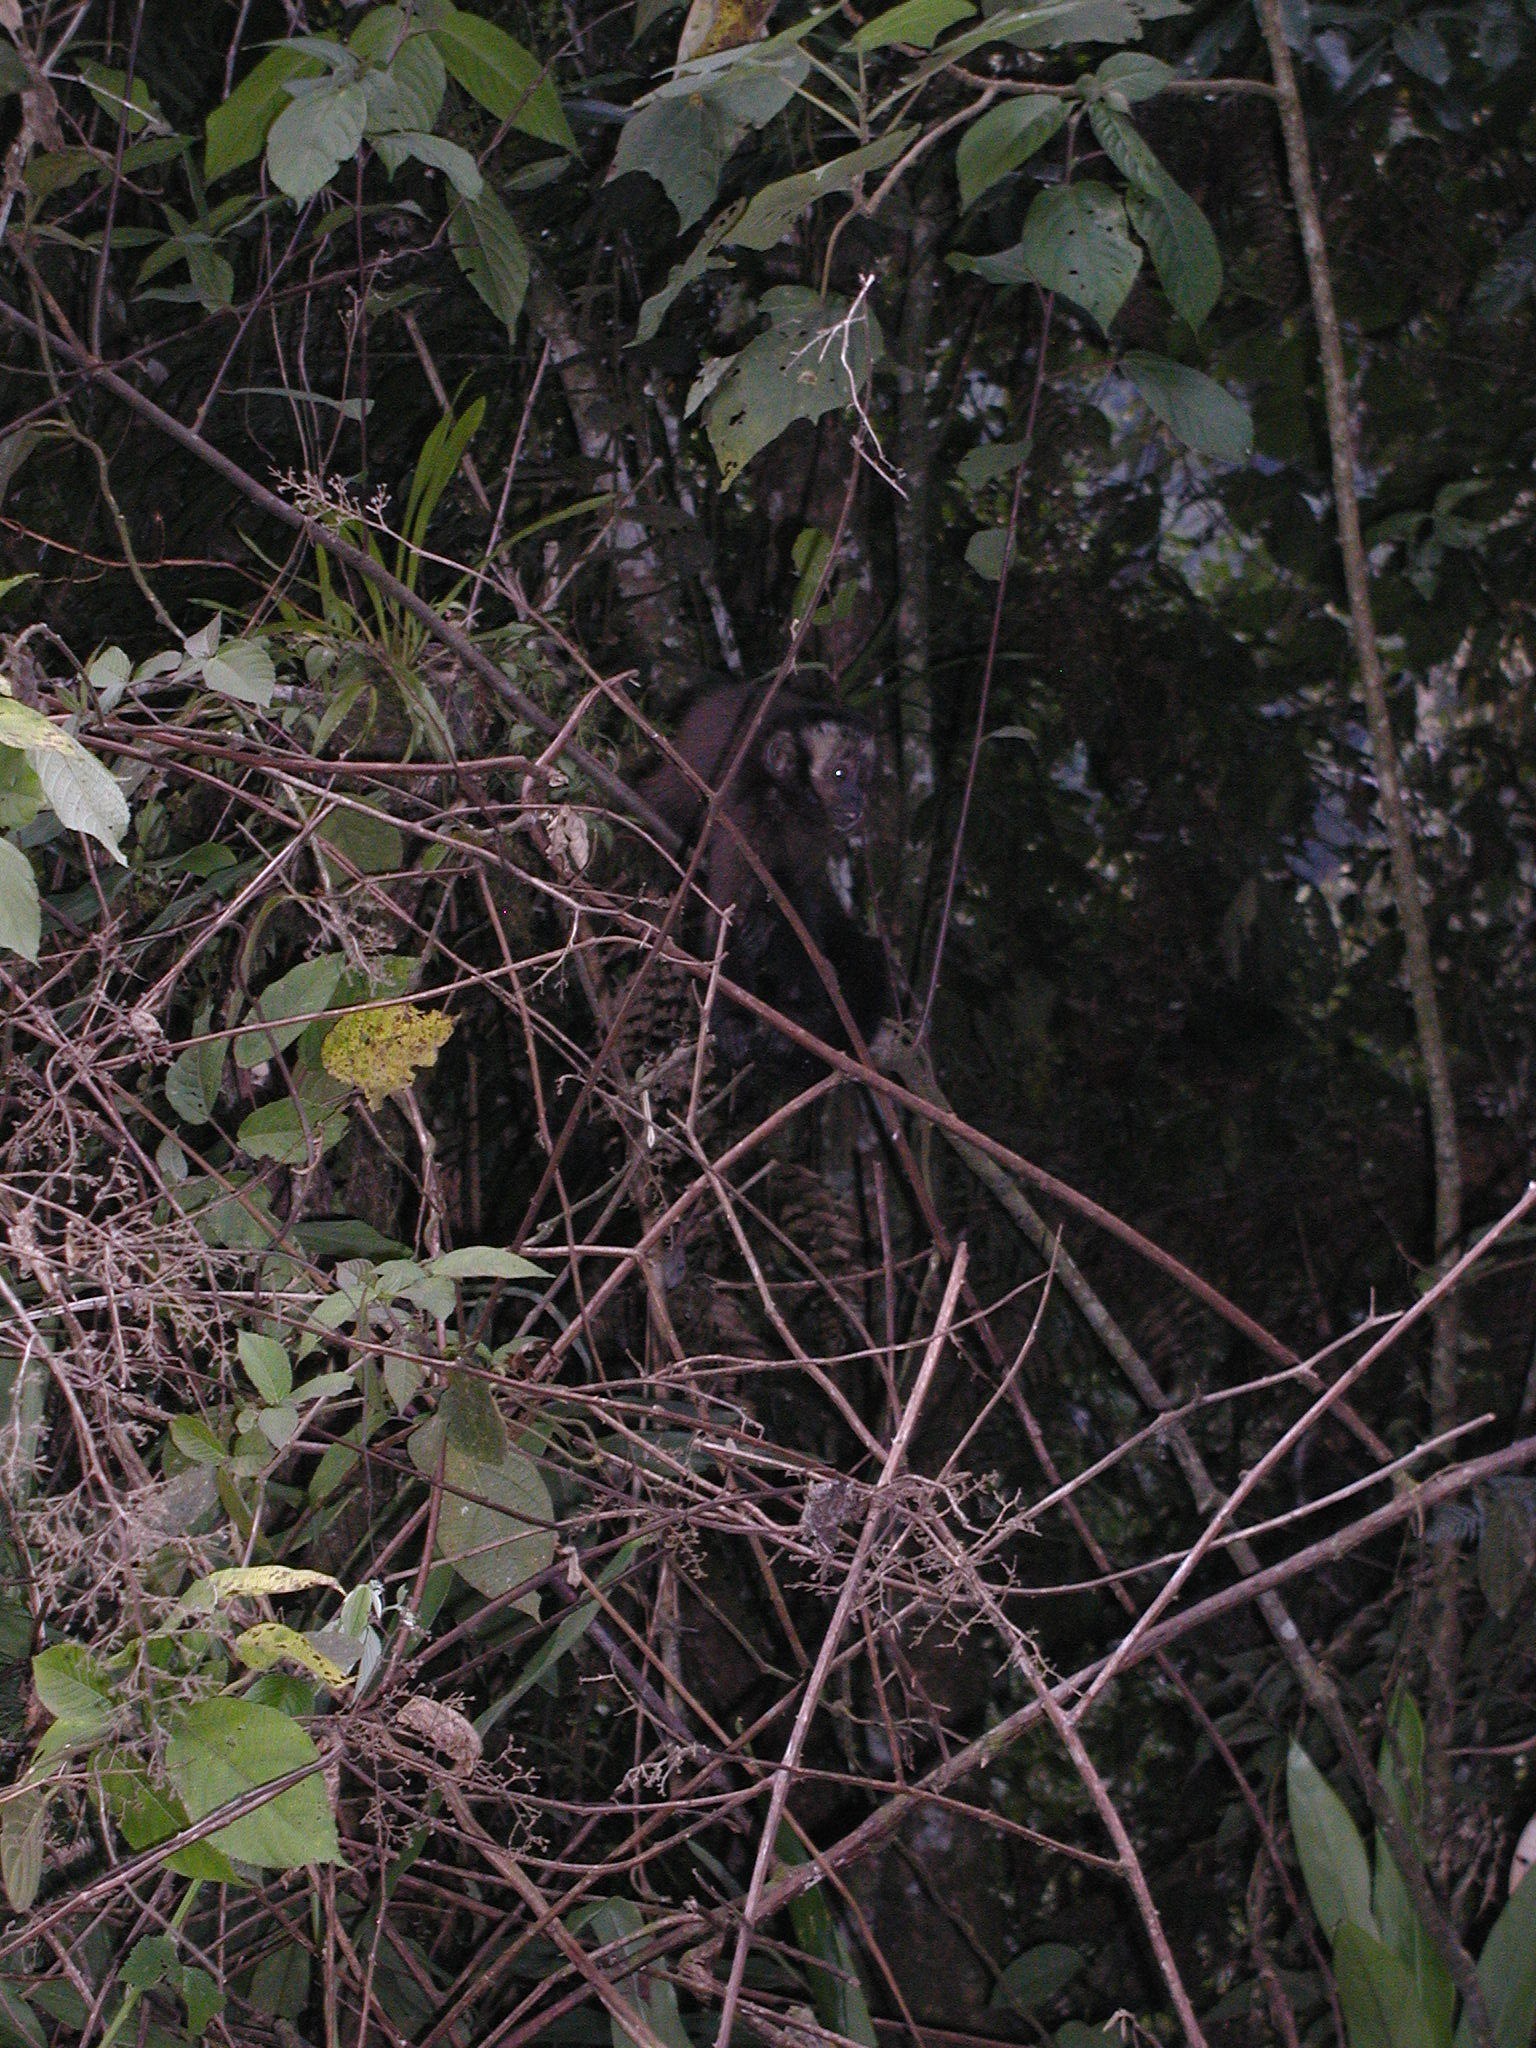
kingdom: Animalia
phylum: Chordata
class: Mammalia
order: Primates
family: Cebidae
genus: Sapajus
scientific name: Sapajus apella
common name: Tufted capuchin
